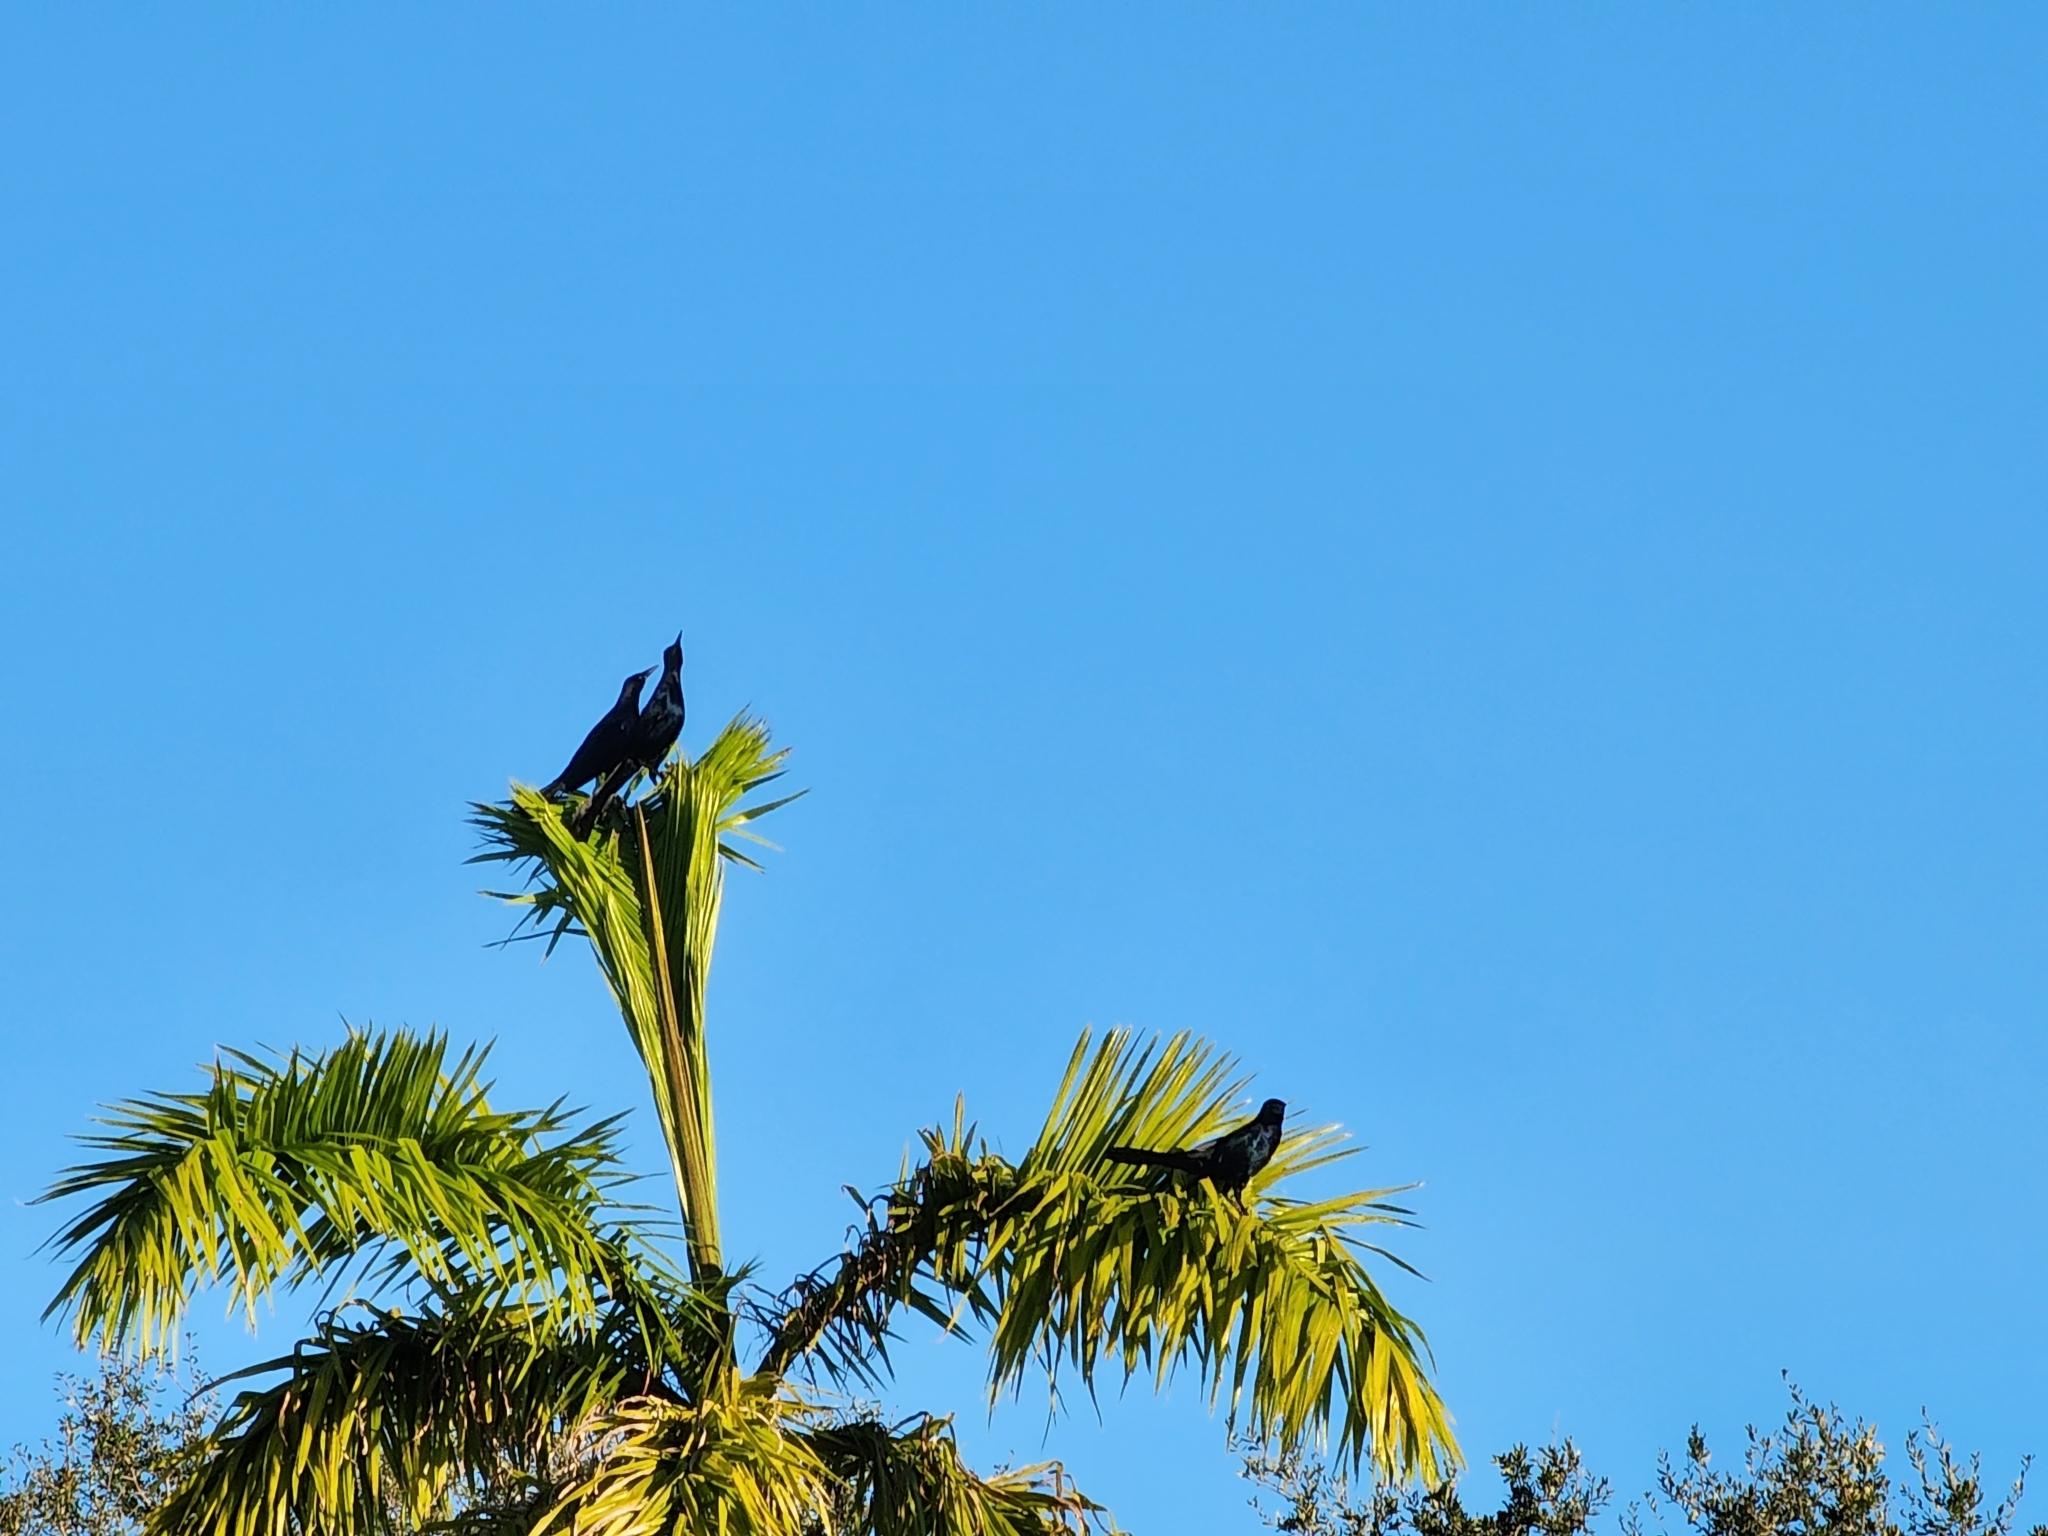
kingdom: Animalia
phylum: Chordata
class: Aves
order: Passeriformes
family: Icteridae
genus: Quiscalus
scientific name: Quiscalus major
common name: Boat-tailed grackle
